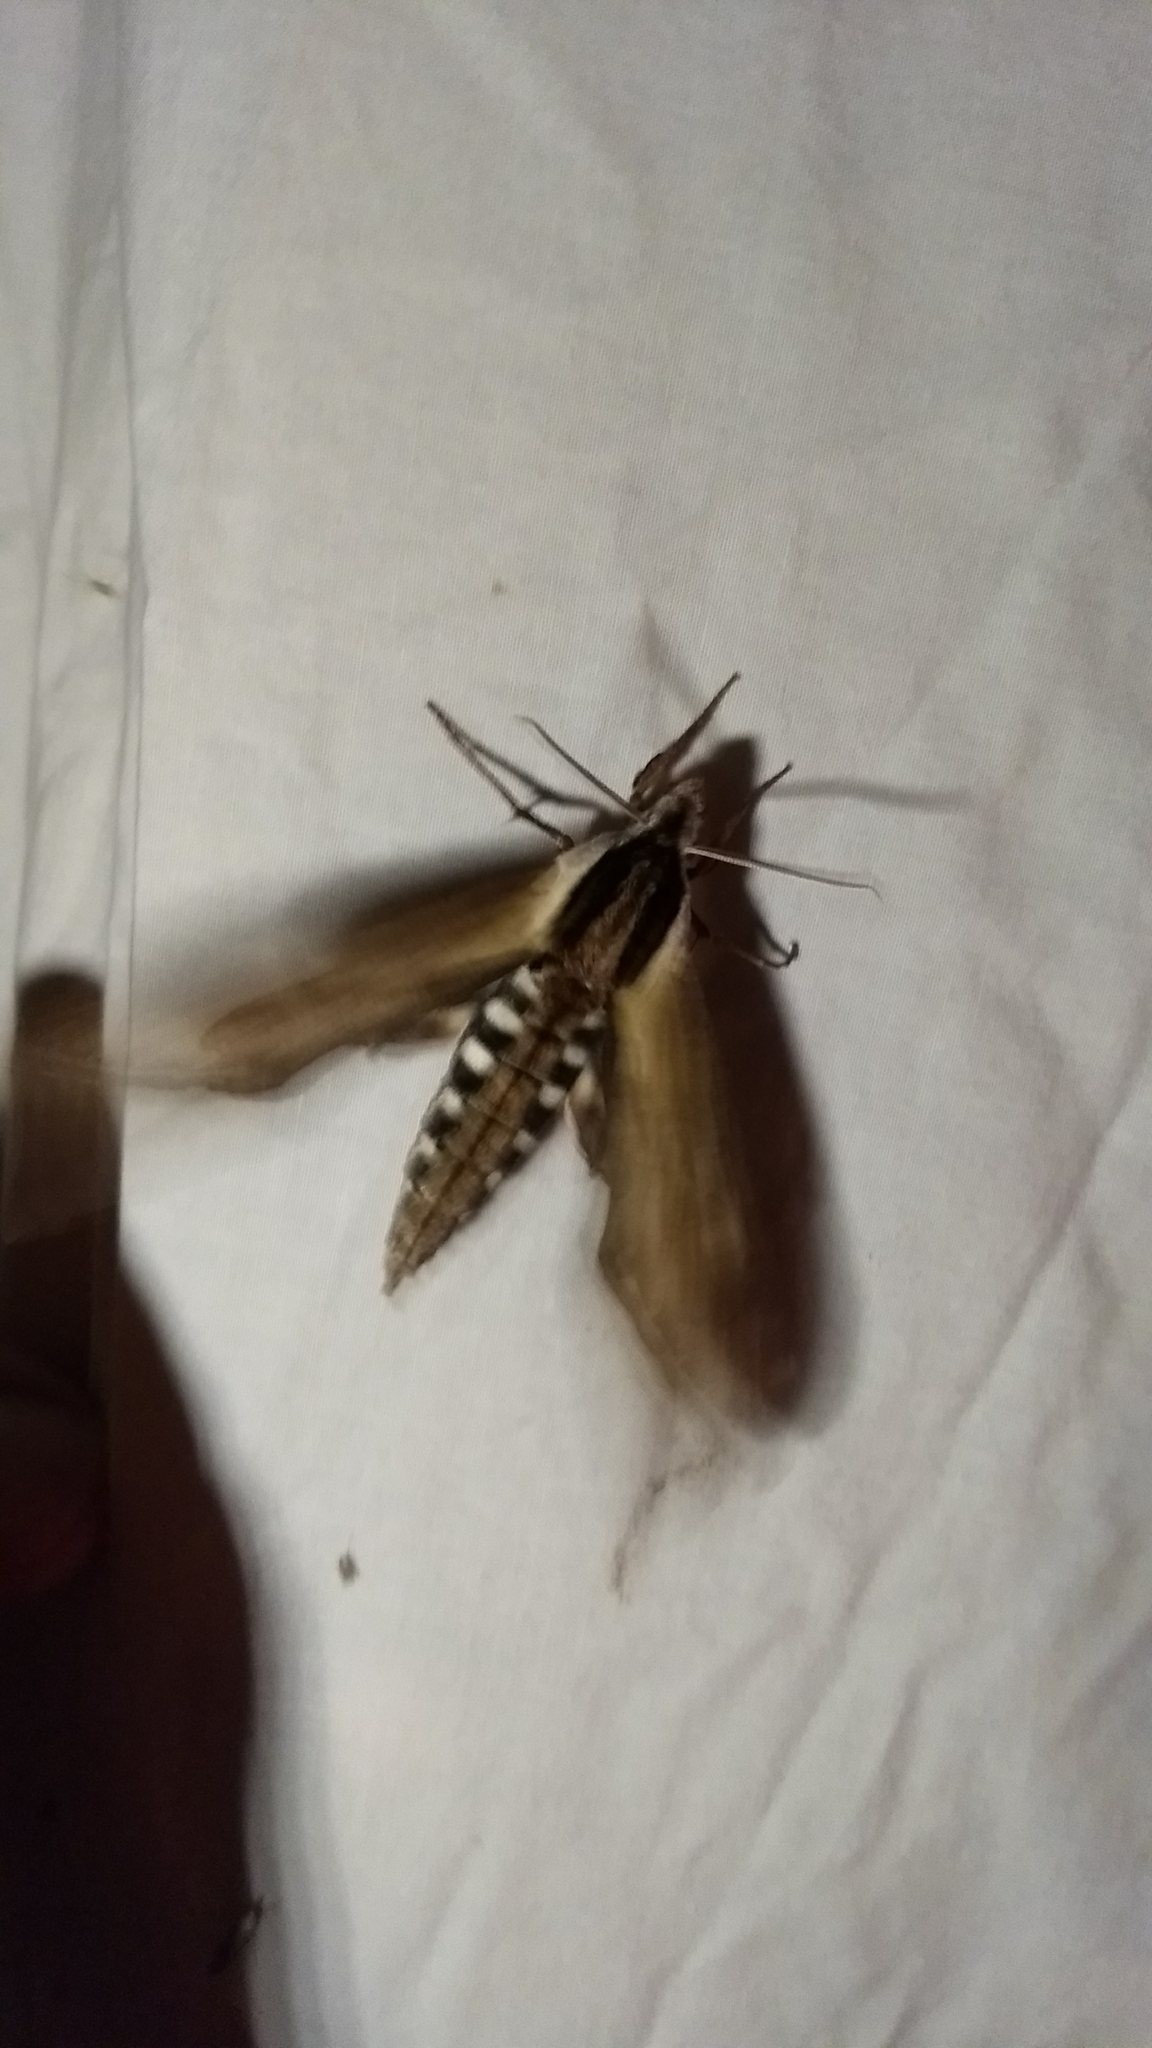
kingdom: Animalia
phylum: Arthropoda
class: Insecta
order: Lepidoptera
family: Sphingidae
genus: Sphinx
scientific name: Sphinx kalmiae
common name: Laurel sphinx
